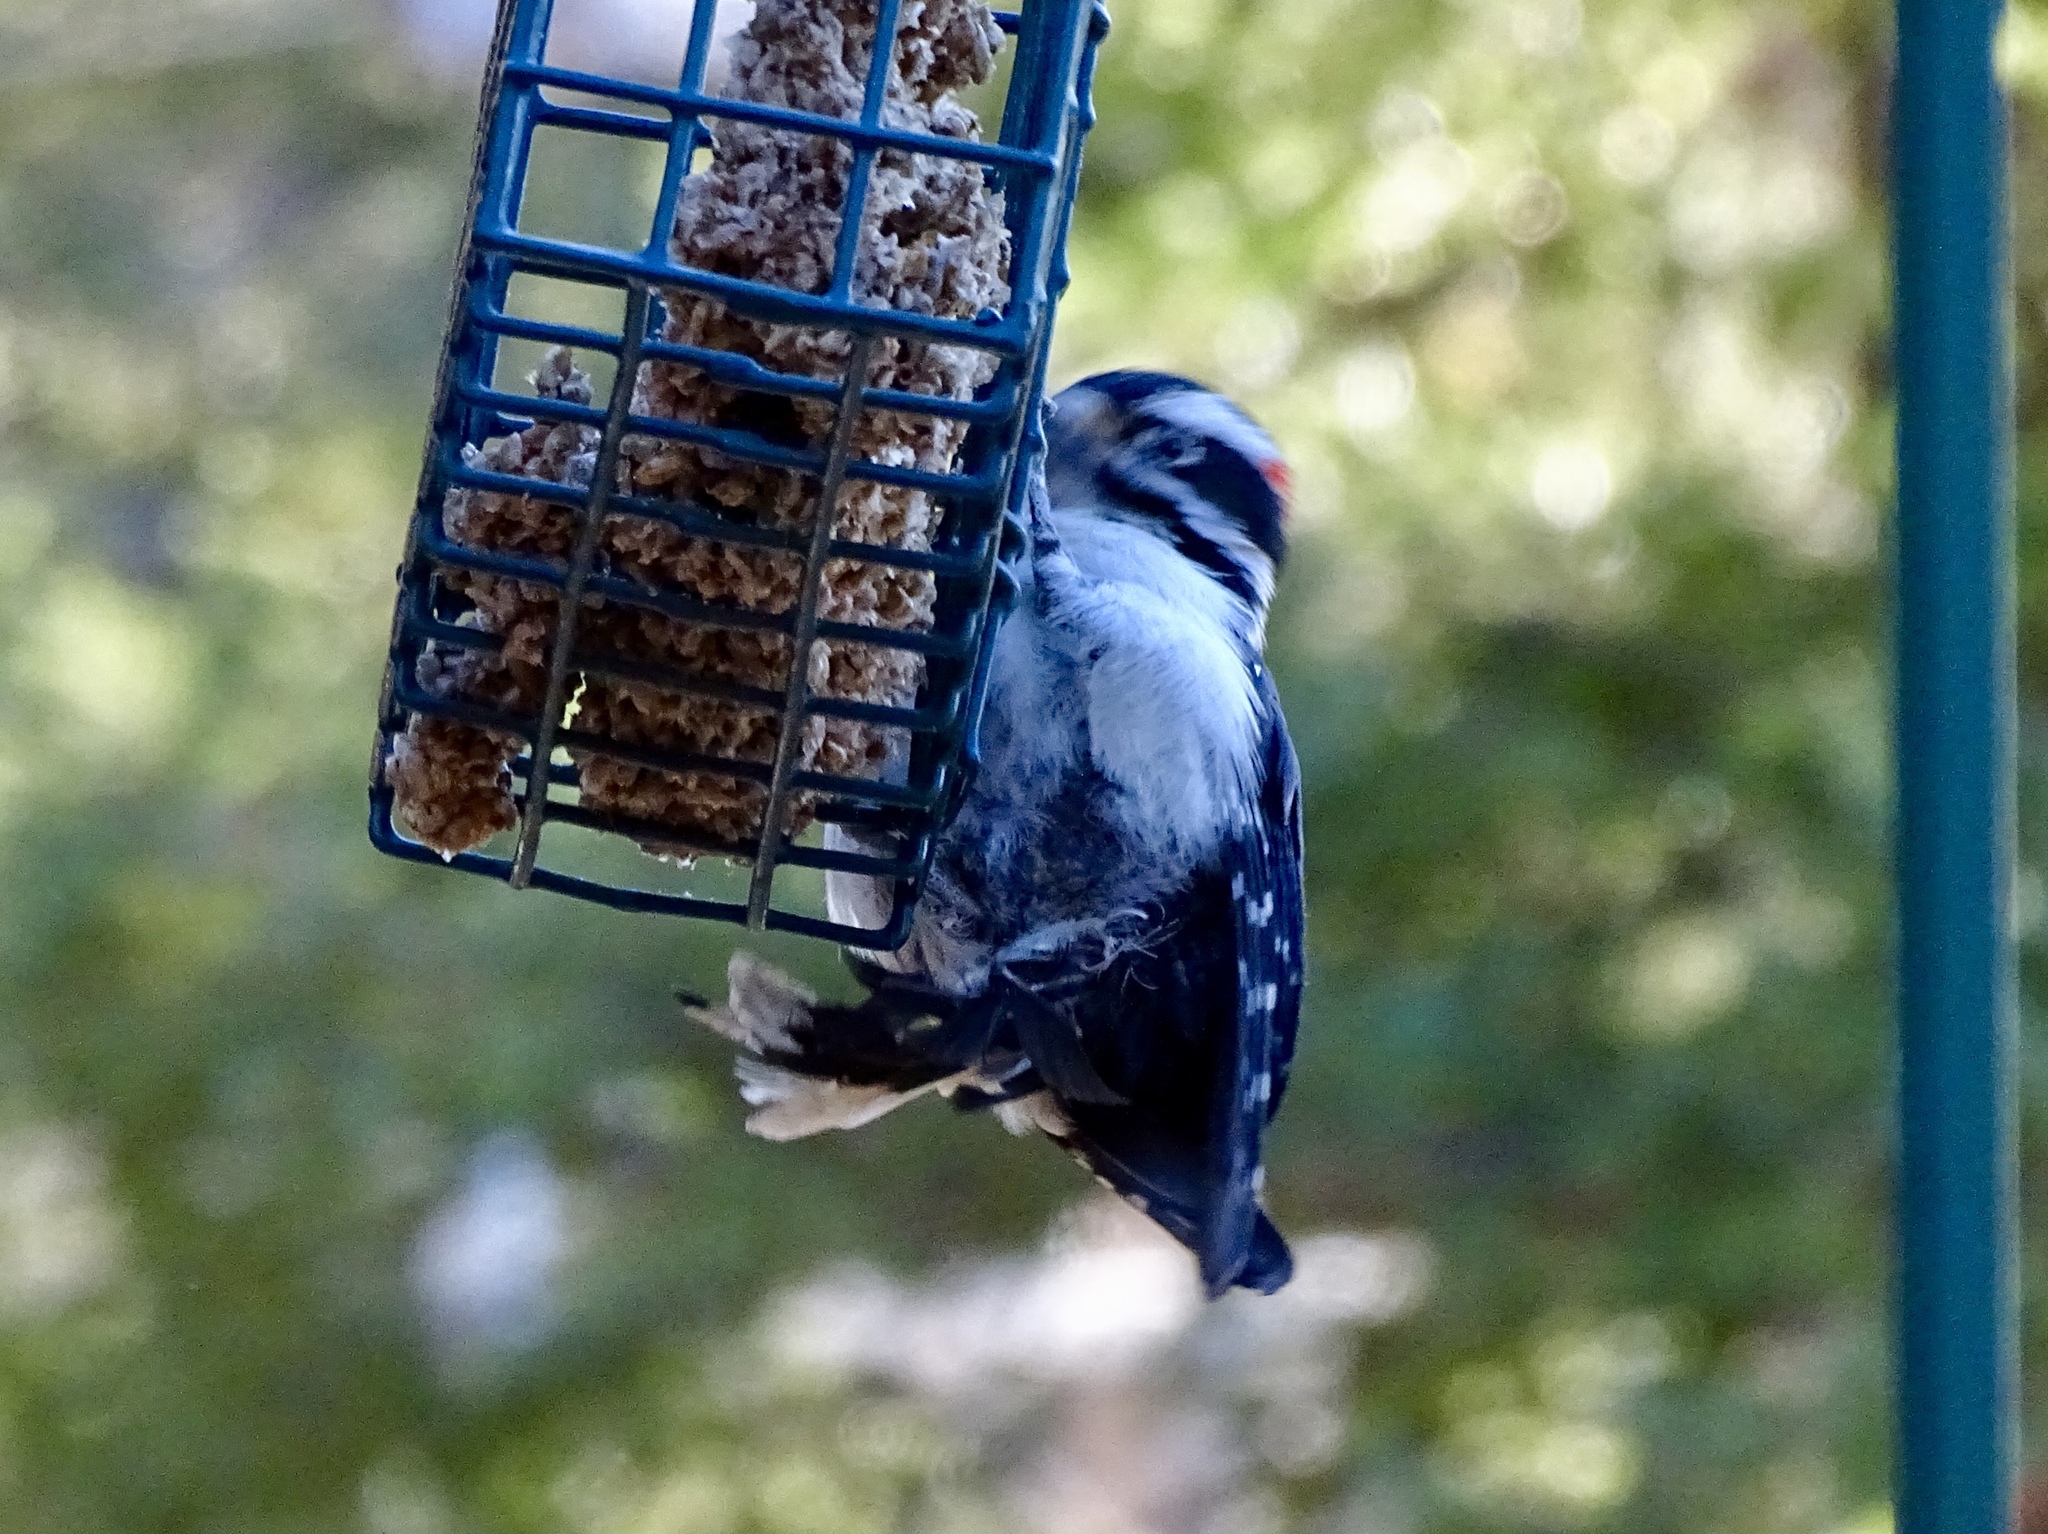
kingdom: Animalia
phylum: Chordata
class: Aves
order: Piciformes
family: Picidae
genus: Leuconotopicus
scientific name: Leuconotopicus villosus
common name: Hairy woodpecker
